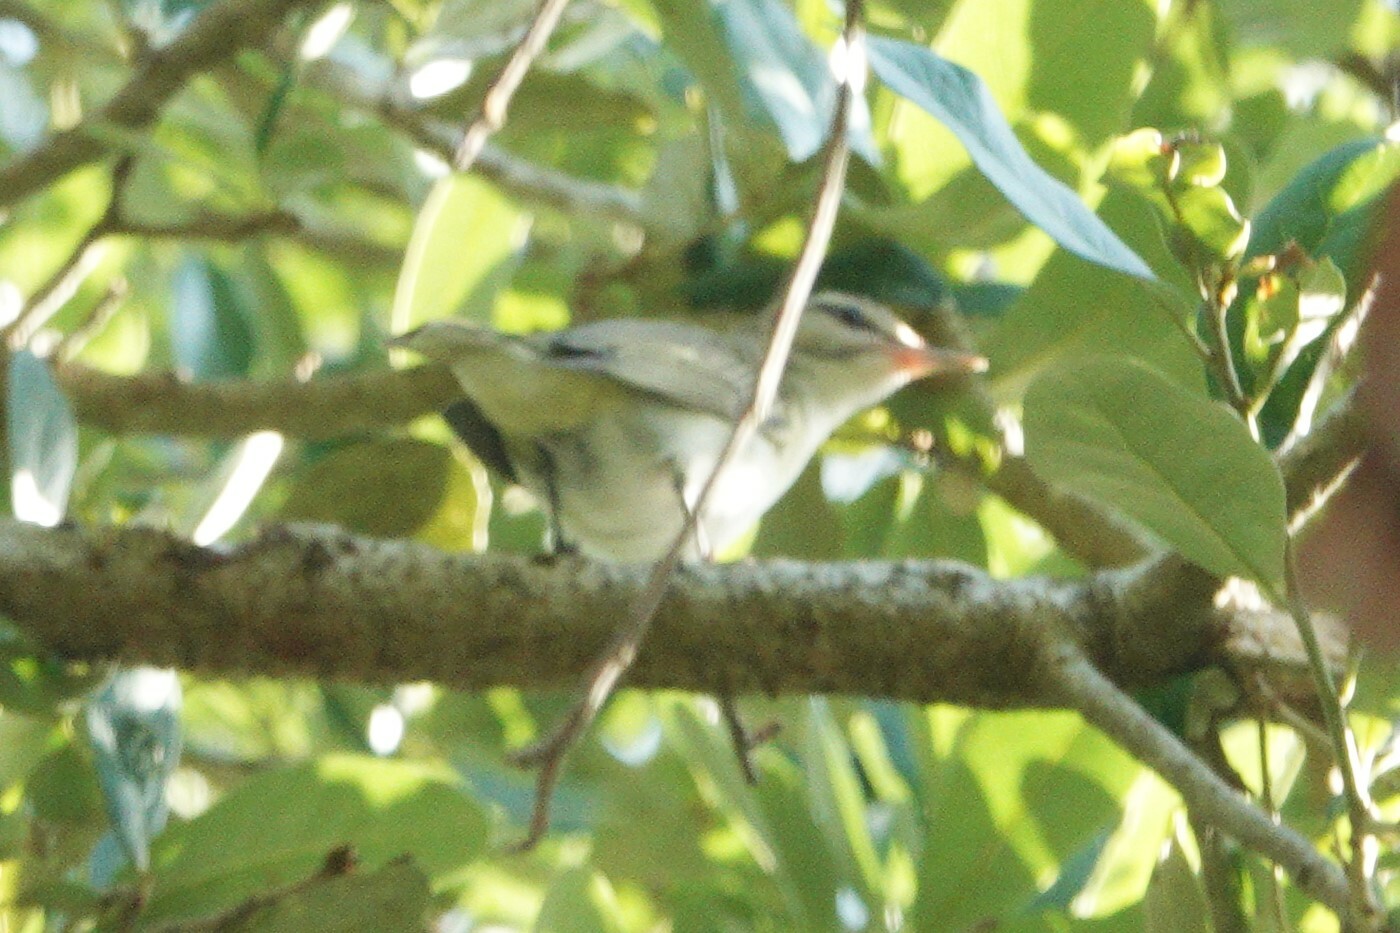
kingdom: Animalia
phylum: Chordata
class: Aves
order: Passeriformes
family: Vireonidae
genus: Vireo
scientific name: Vireo altiloquus
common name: Black-whiskered vireo
